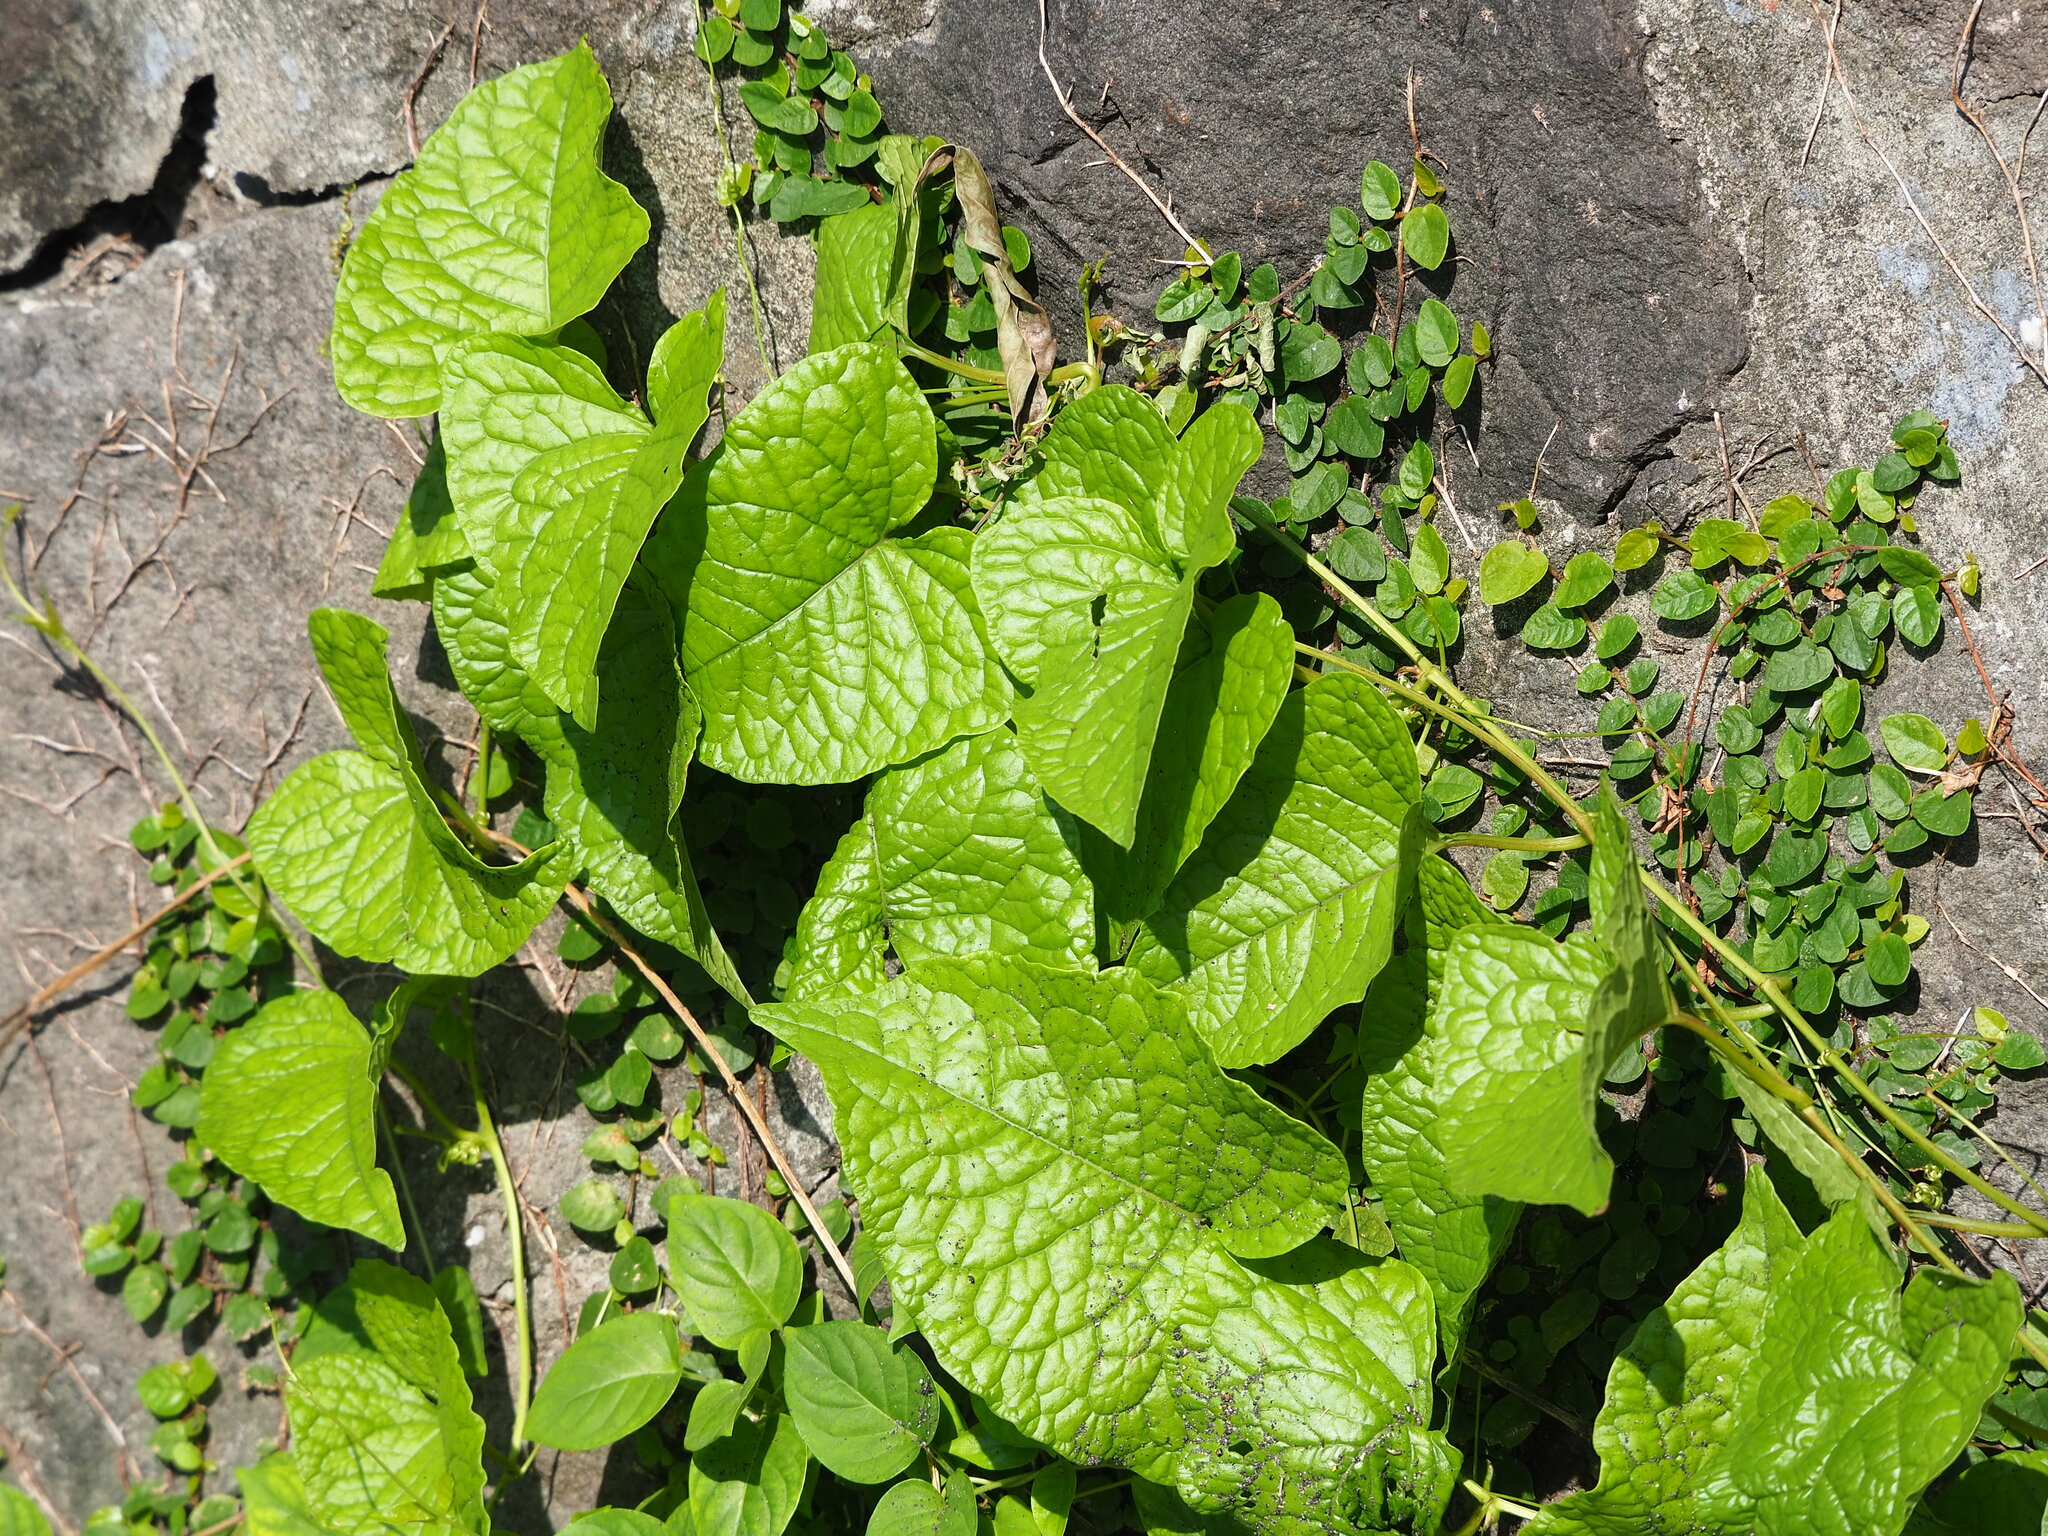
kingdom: Plantae
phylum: Tracheophyta
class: Magnoliopsida
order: Caryophyllales
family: Polygonaceae
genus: Antigonon
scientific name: Antigonon leptopus
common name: Coral vine
